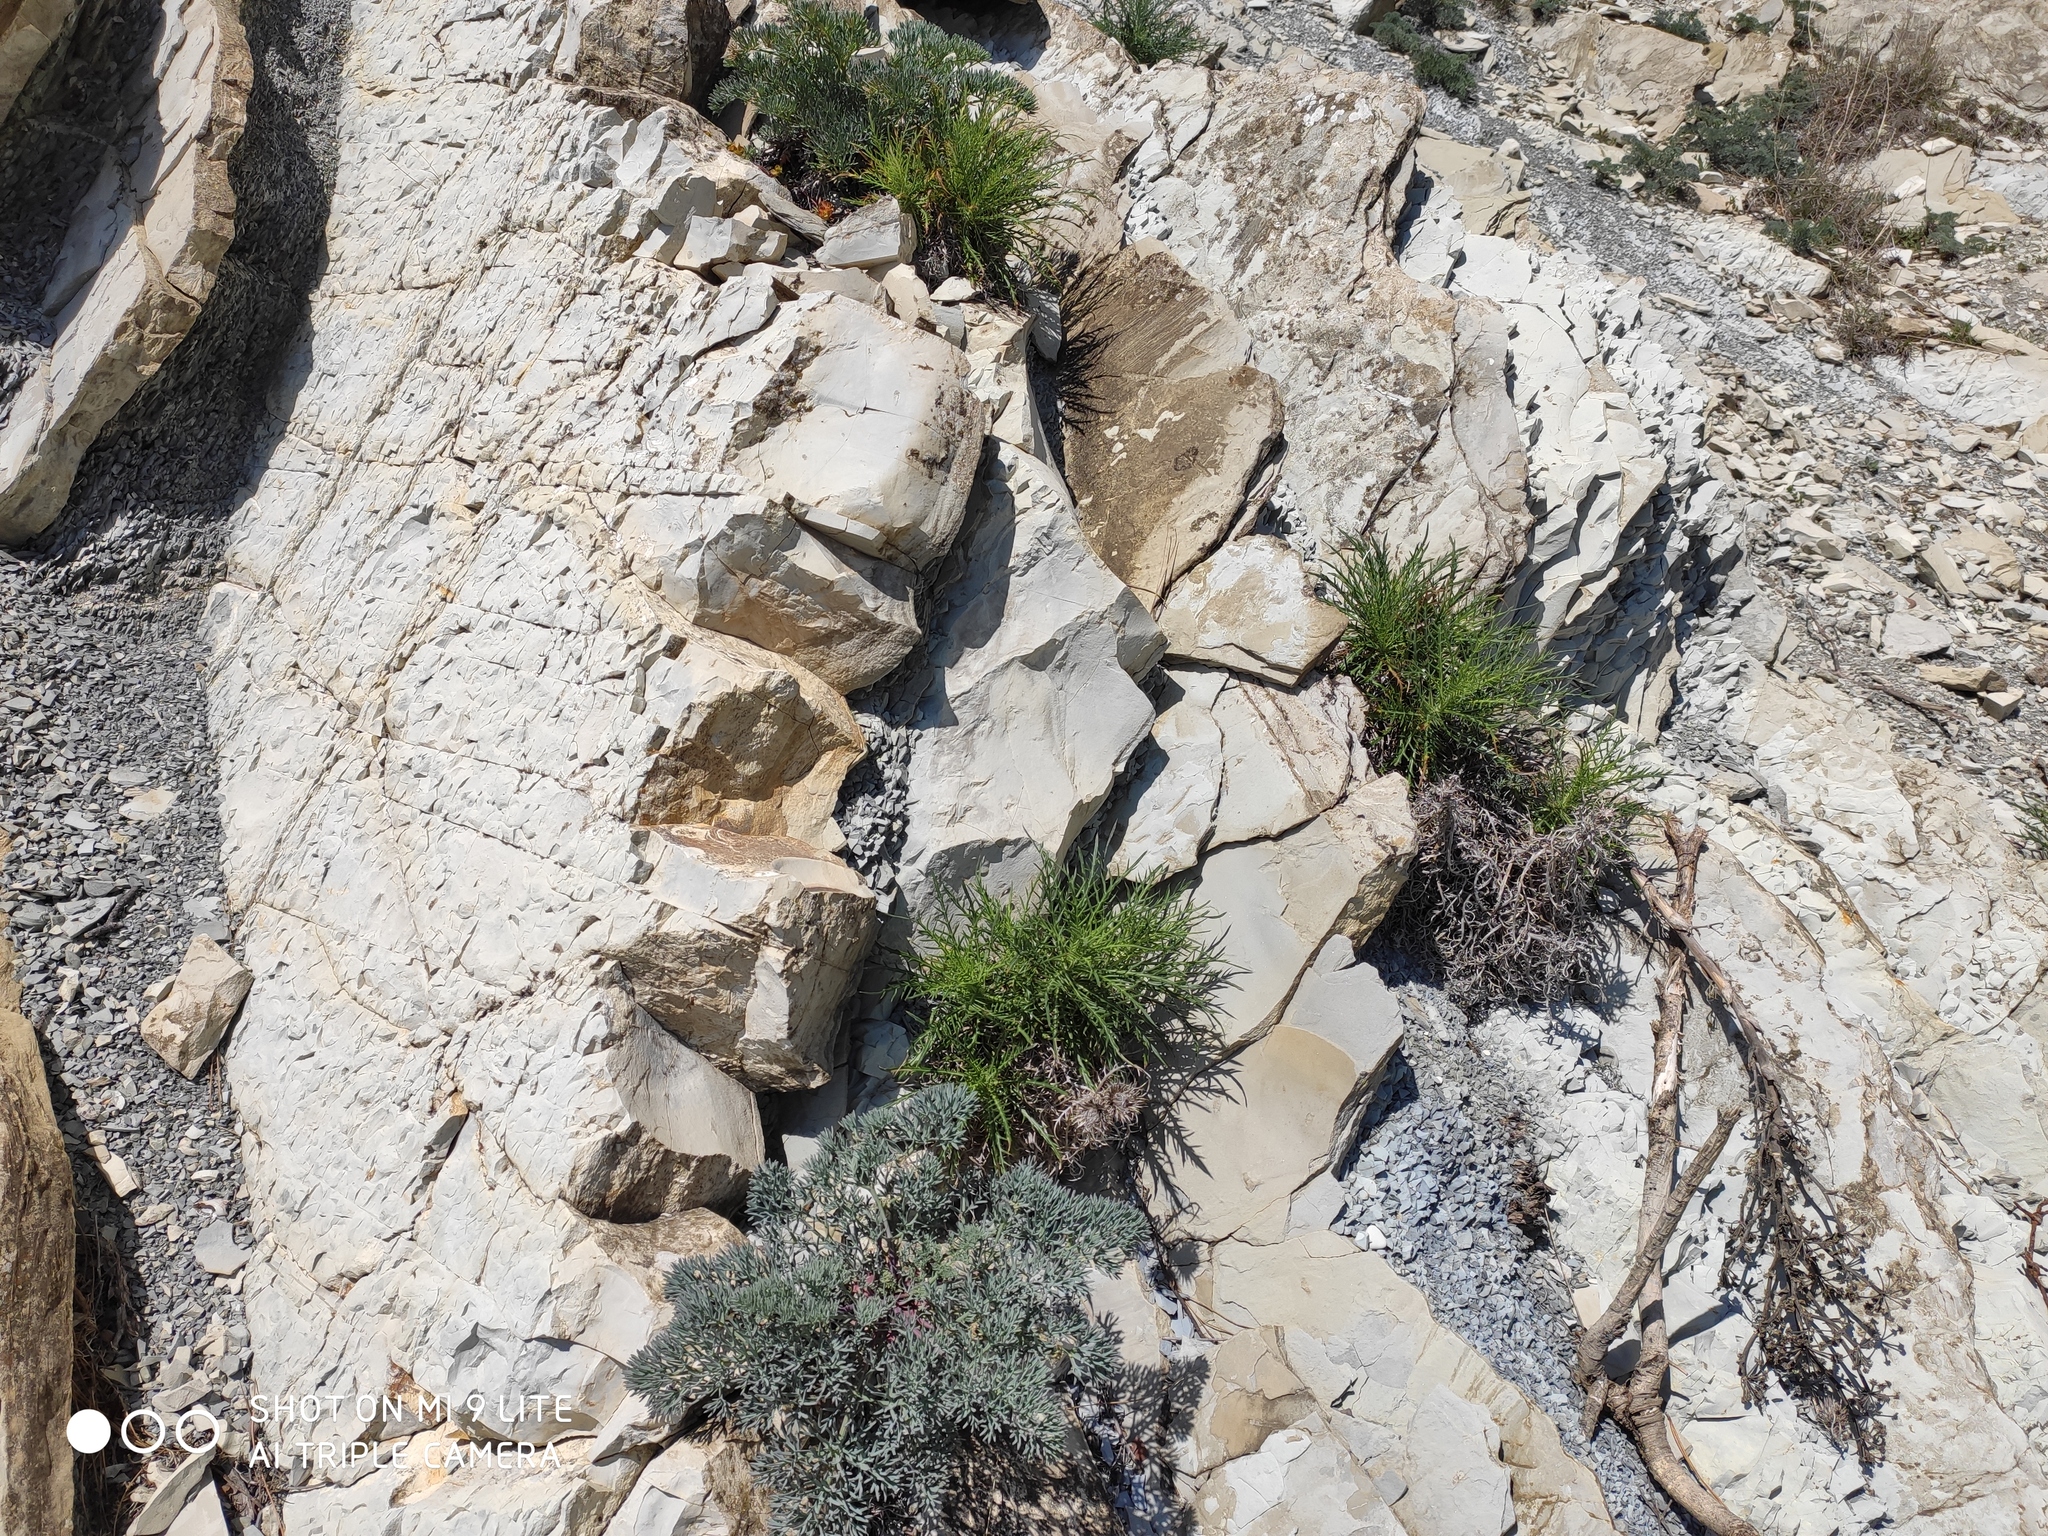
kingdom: Plantae
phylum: Tracheophyta
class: Magnoliopsida
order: Asterales
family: Asteraceae
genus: Ptilostemon
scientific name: Ptilostemon echinocephalus
